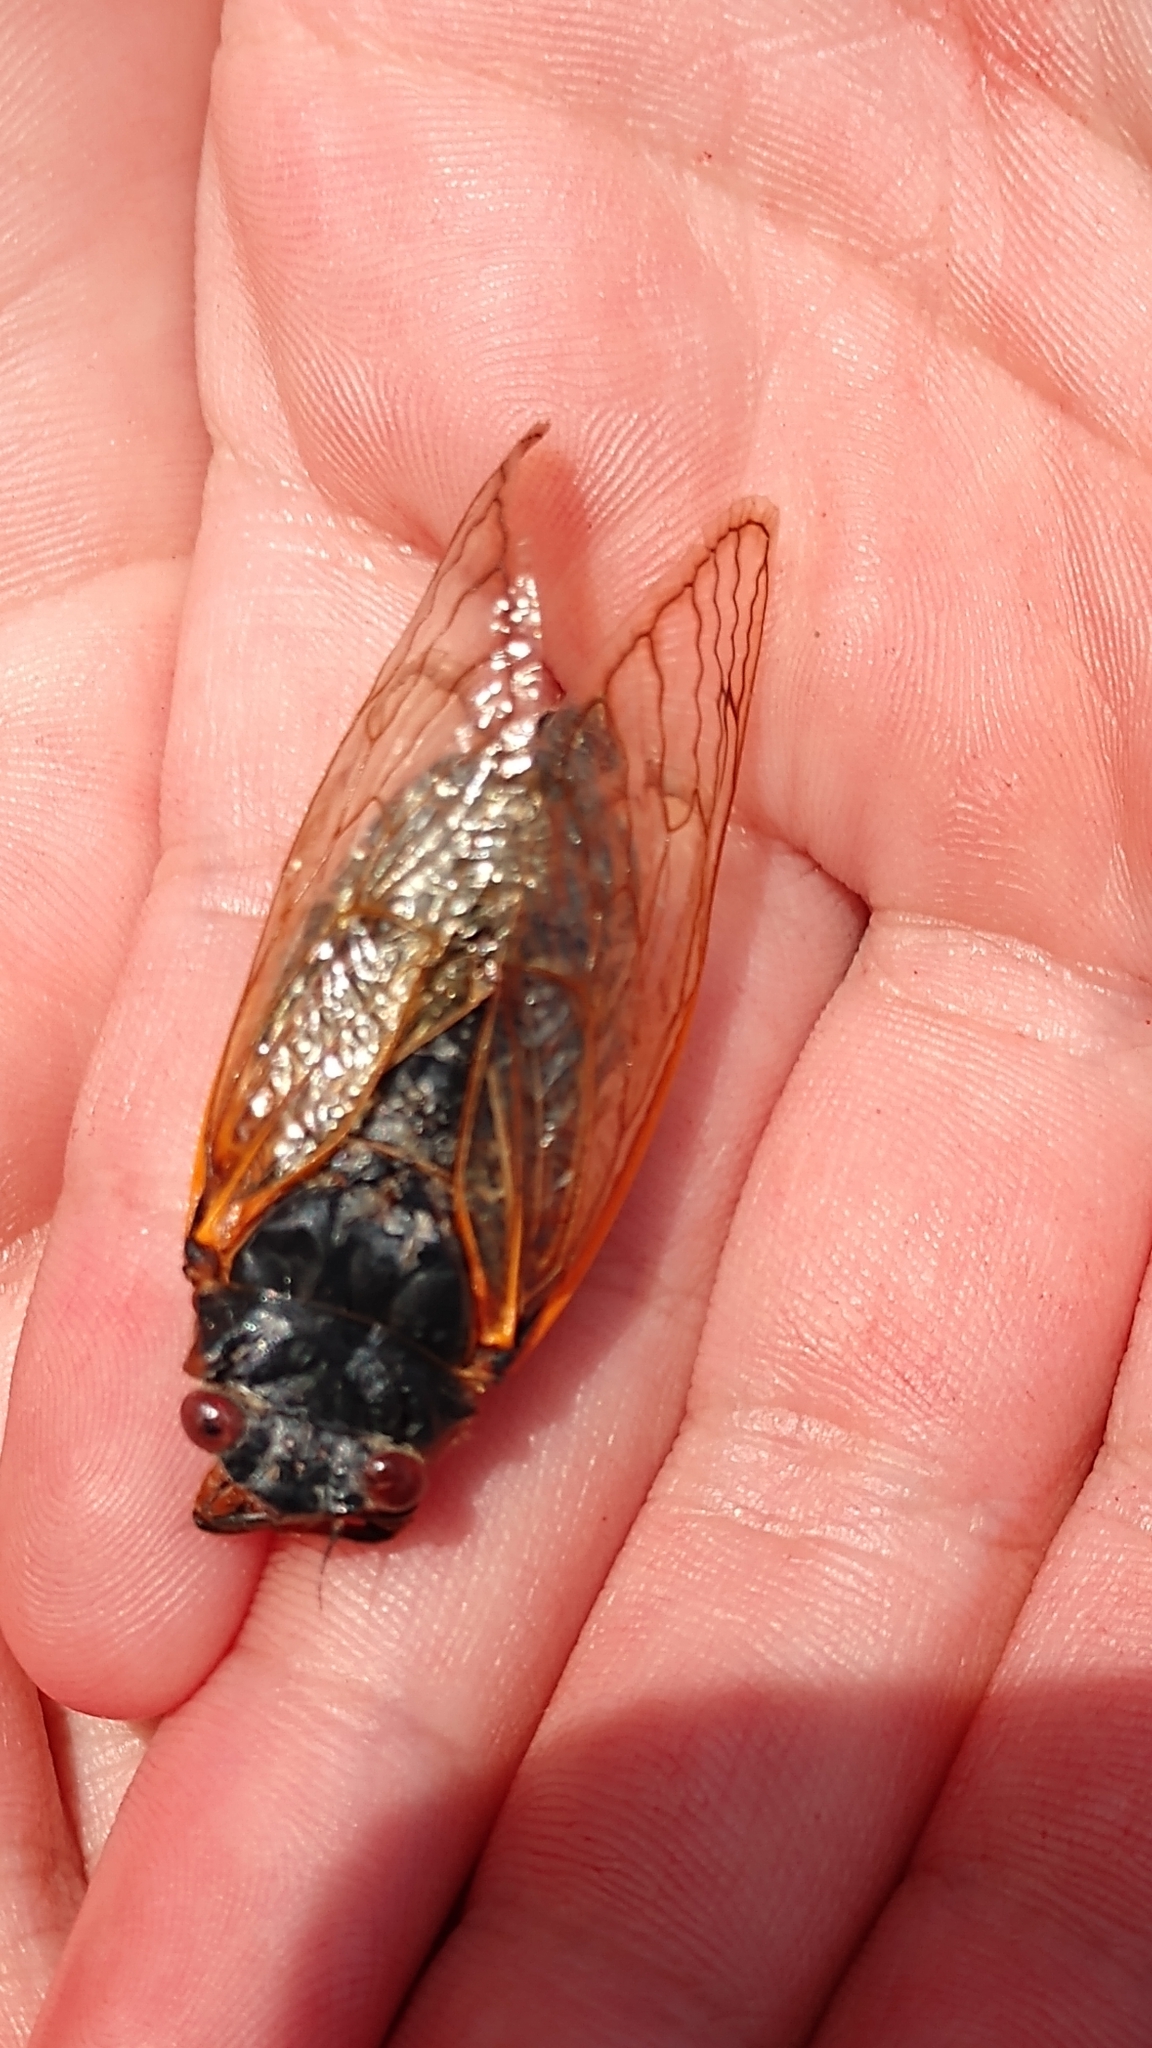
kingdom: Animalia
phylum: Arthropoda
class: Insecta
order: Hemiptera
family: Cicadidae
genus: Magicicada
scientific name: Magicicada
